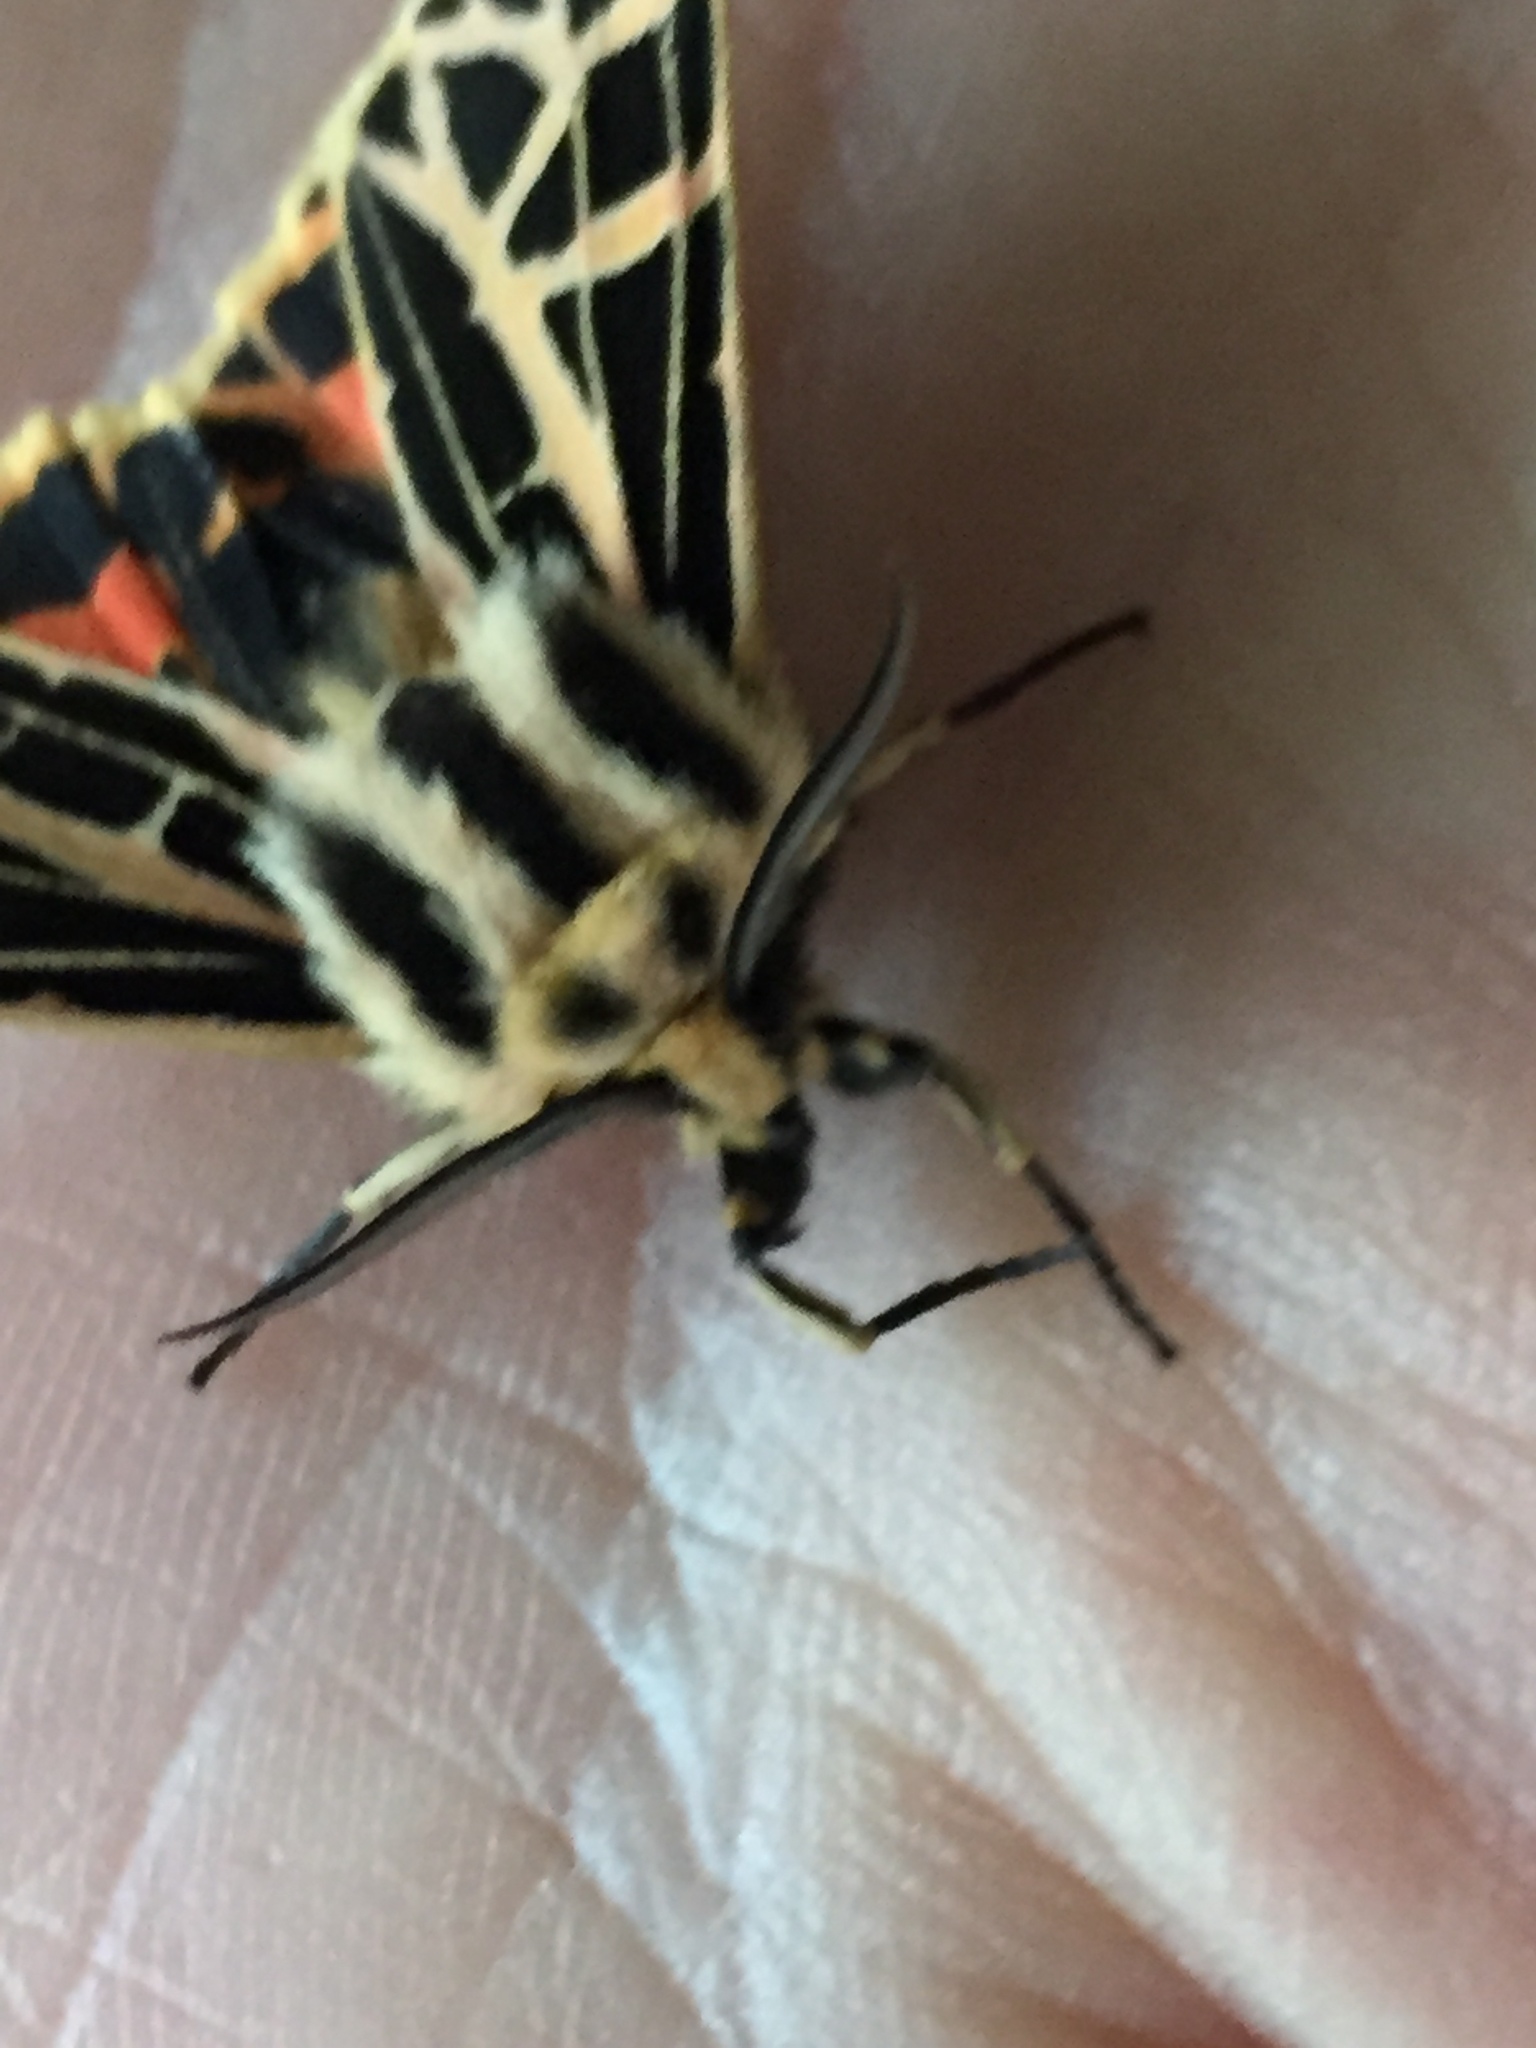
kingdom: Animalia
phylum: Arthropoda
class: Insecta
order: Lepidoptera
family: Erebidae
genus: Apantesis
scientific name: Apantesis
